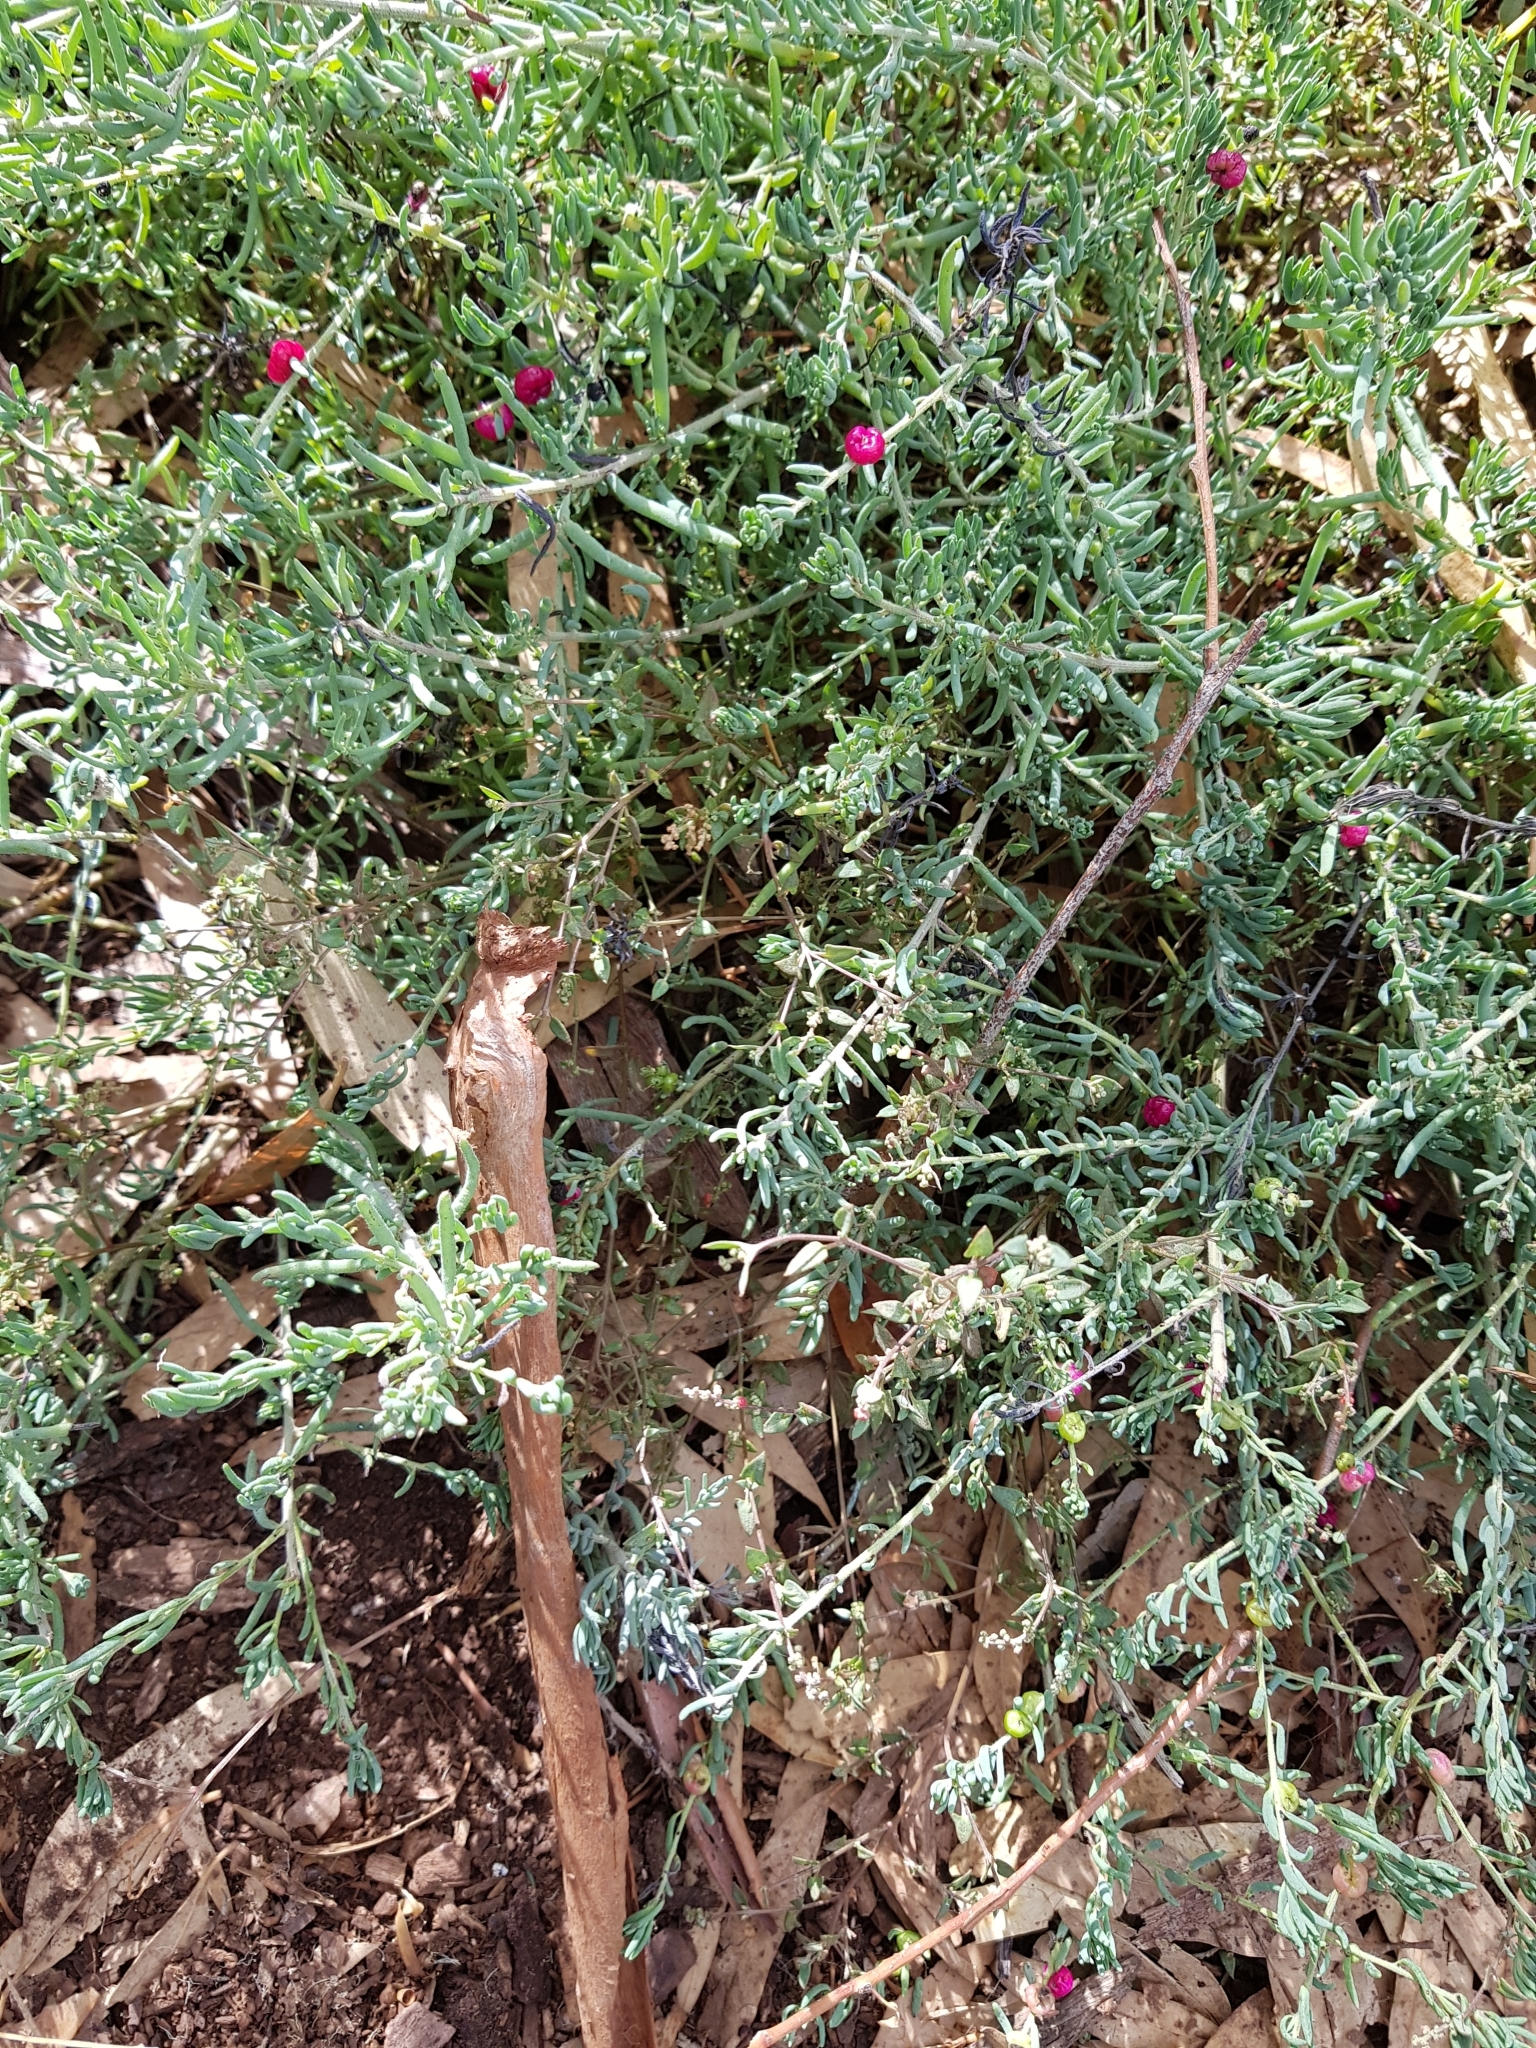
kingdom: Plantae
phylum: Tracheophyta
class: Magnoliopsida
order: Caryophyllales
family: Amaranthaceae
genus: Enchylaena
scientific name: Enchylaena tomentosa
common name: Ruby saltbush
